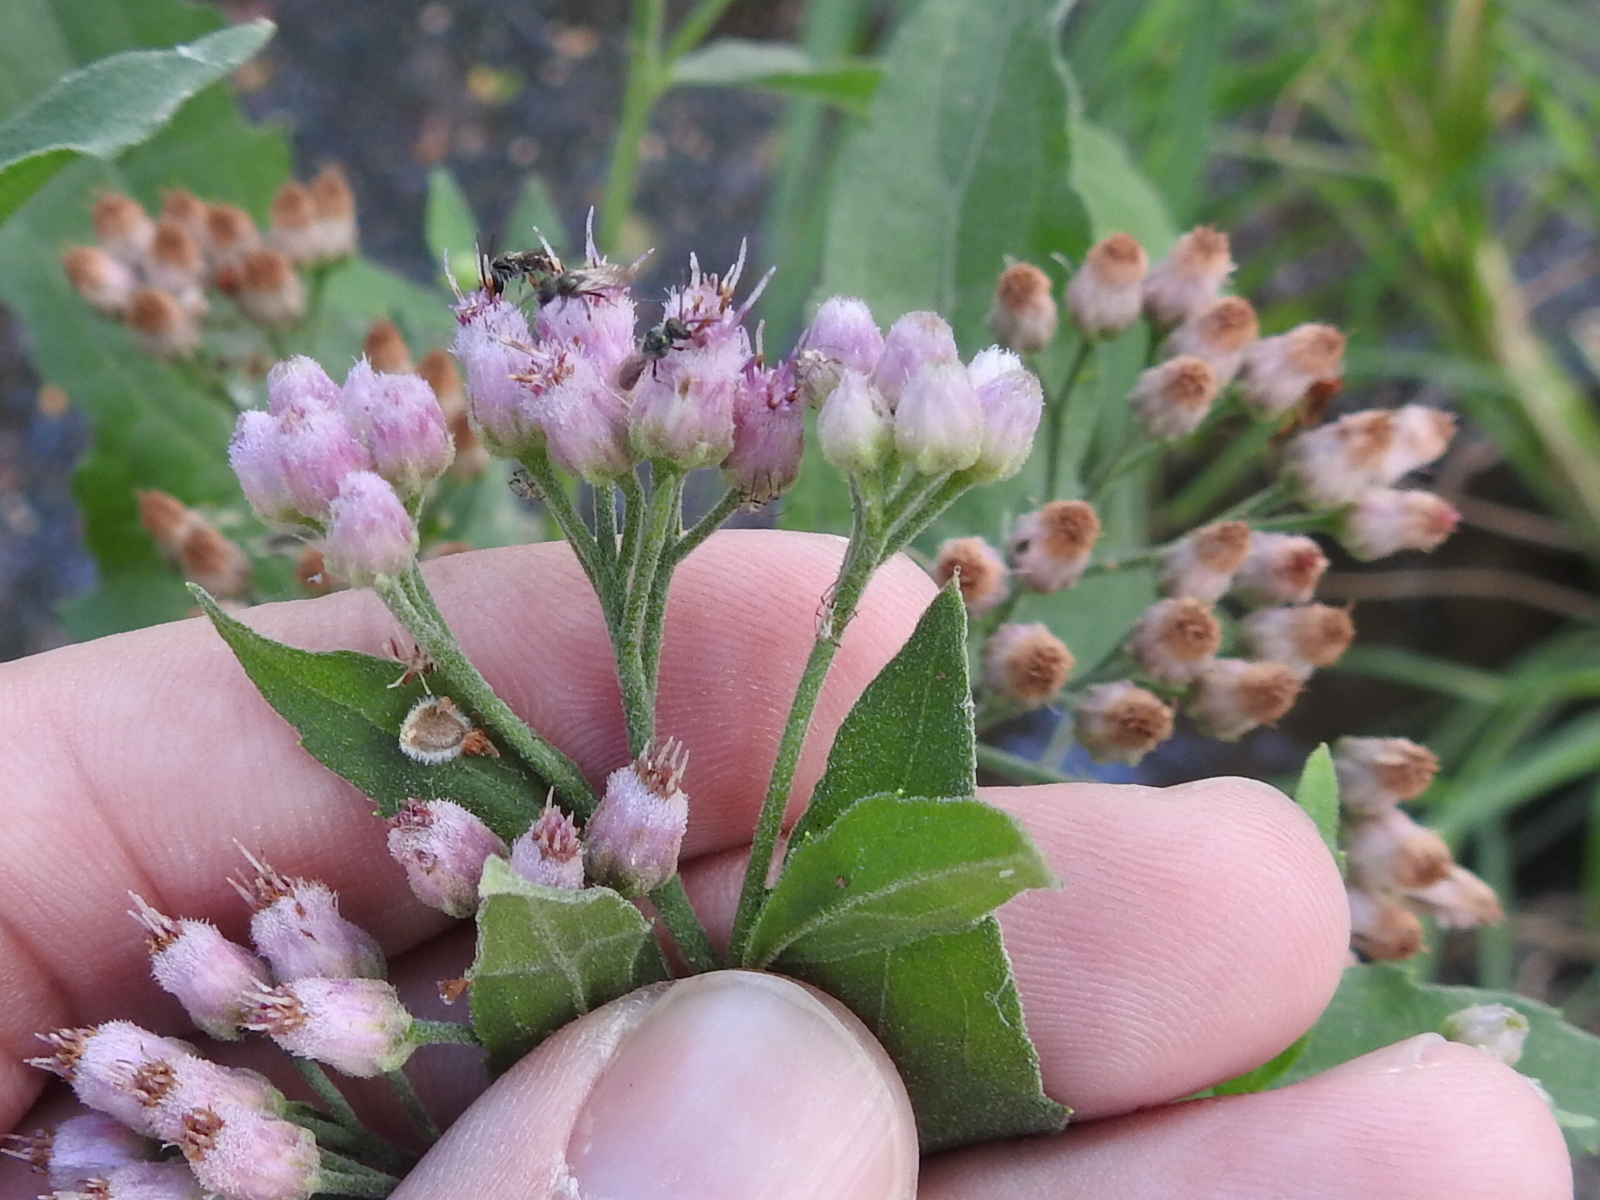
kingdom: Plantae
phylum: Tracheophyta
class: Magnoliopsida
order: Asterales
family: Asteraceae
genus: Pluchea
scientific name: Pluchea odorata
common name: Saltmarsh fleabane
